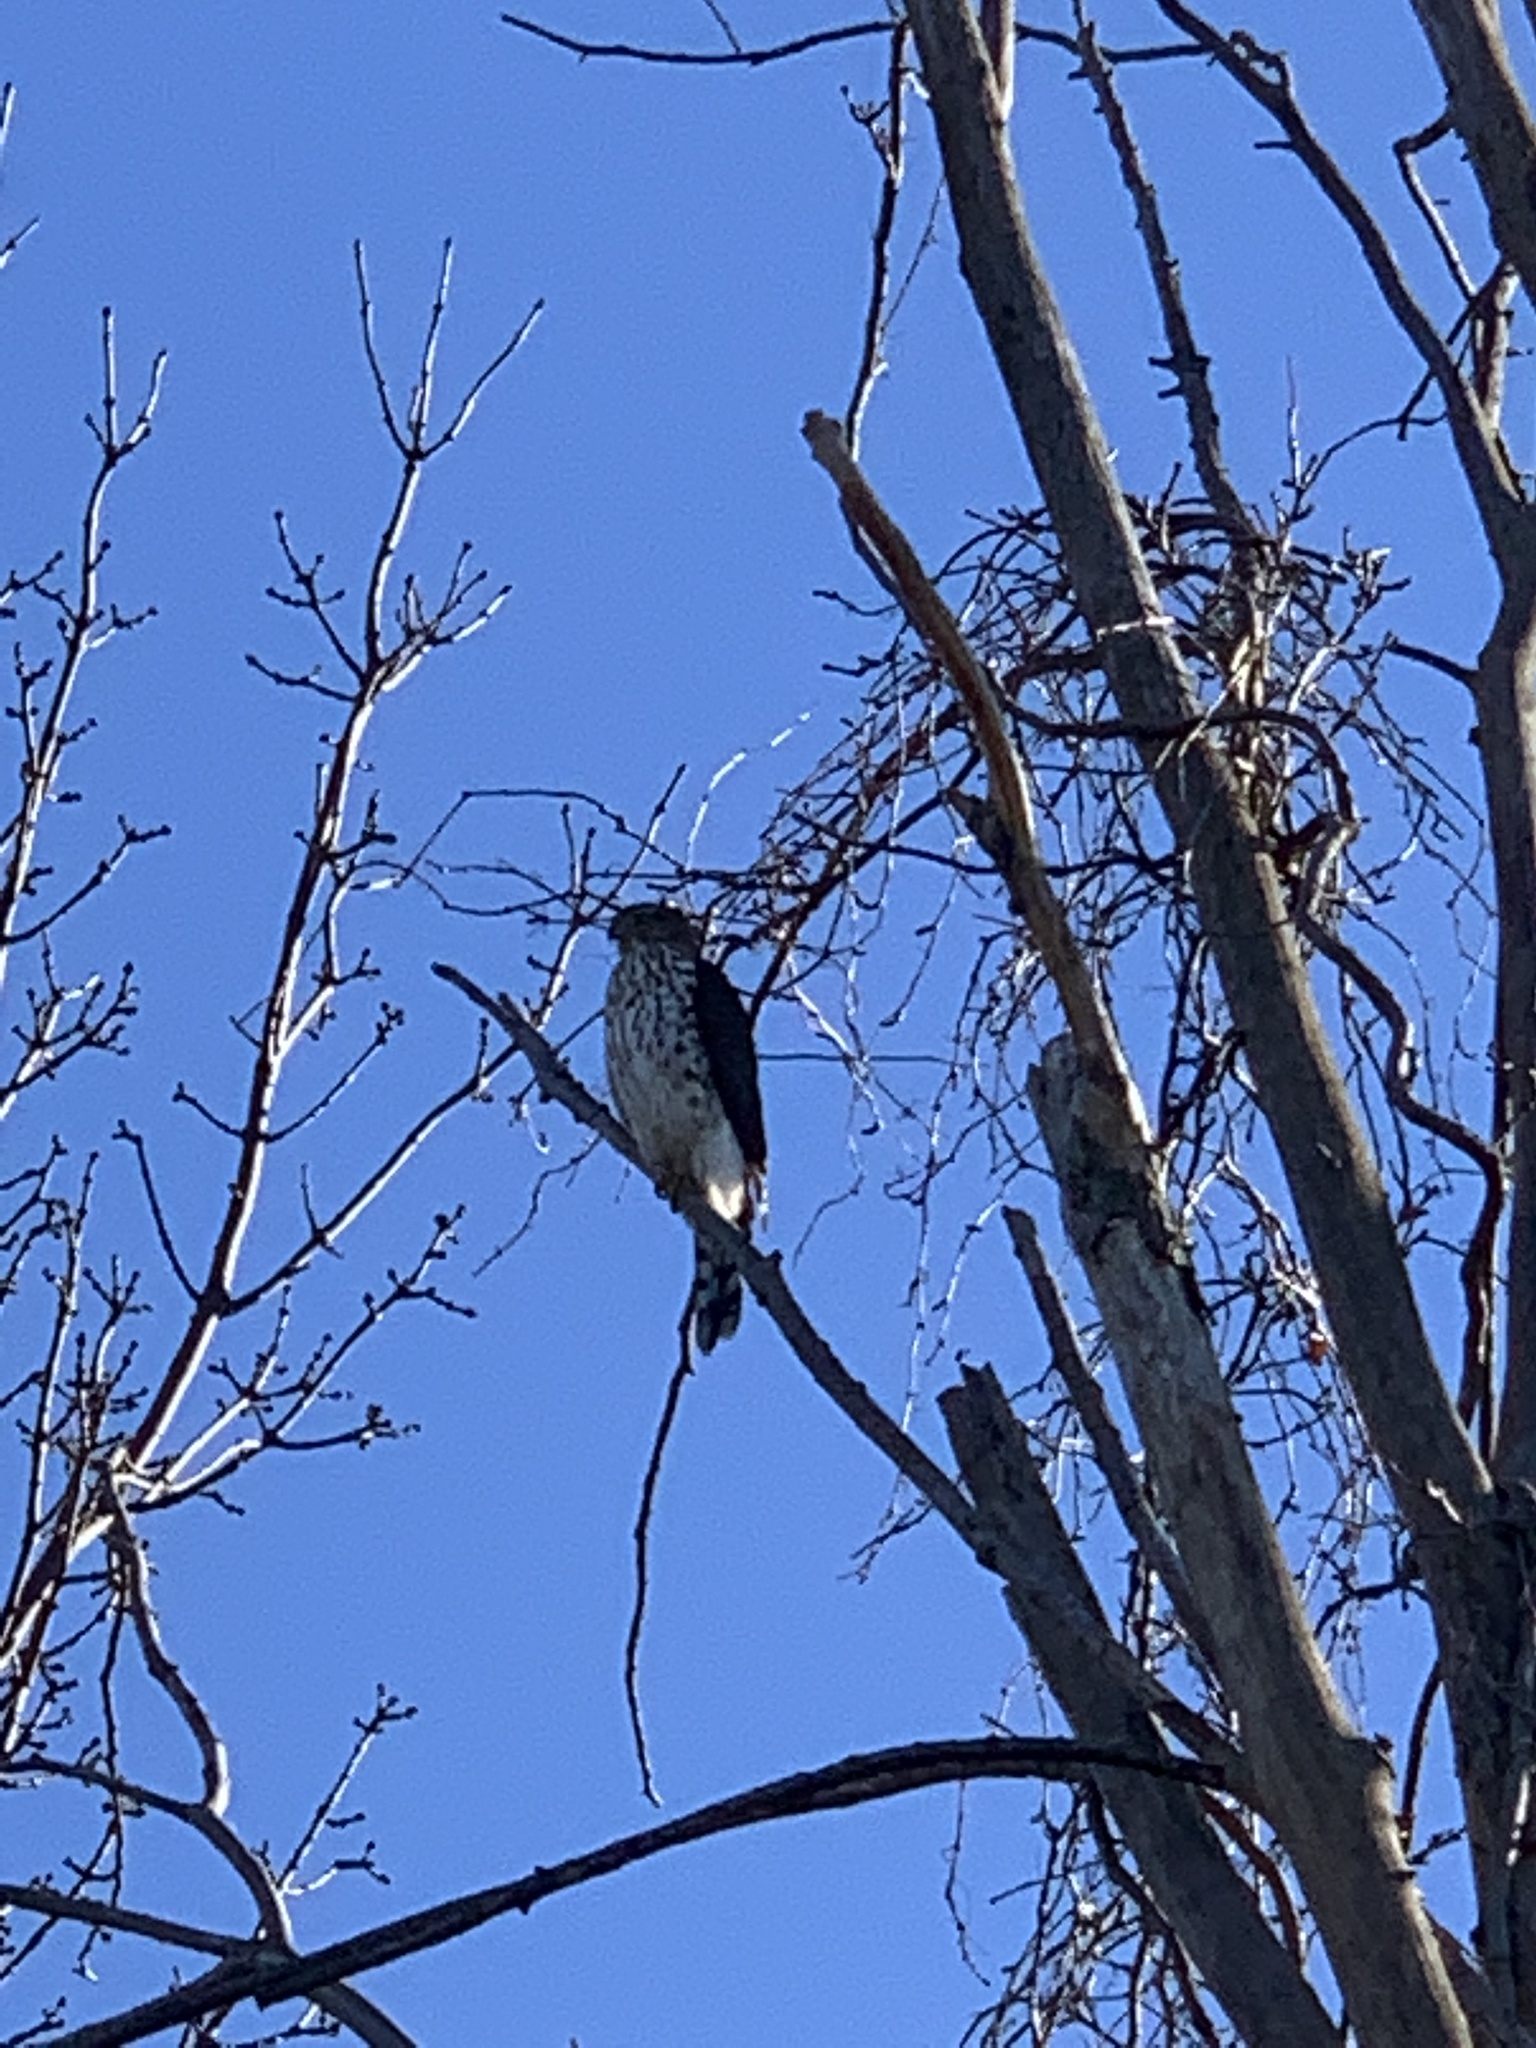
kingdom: Animalia
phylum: Chordata
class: Aves
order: Accipitriformes
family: Accipitridae
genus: Accipiter
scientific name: Accipiter cooperii
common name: Cooper's hawk
